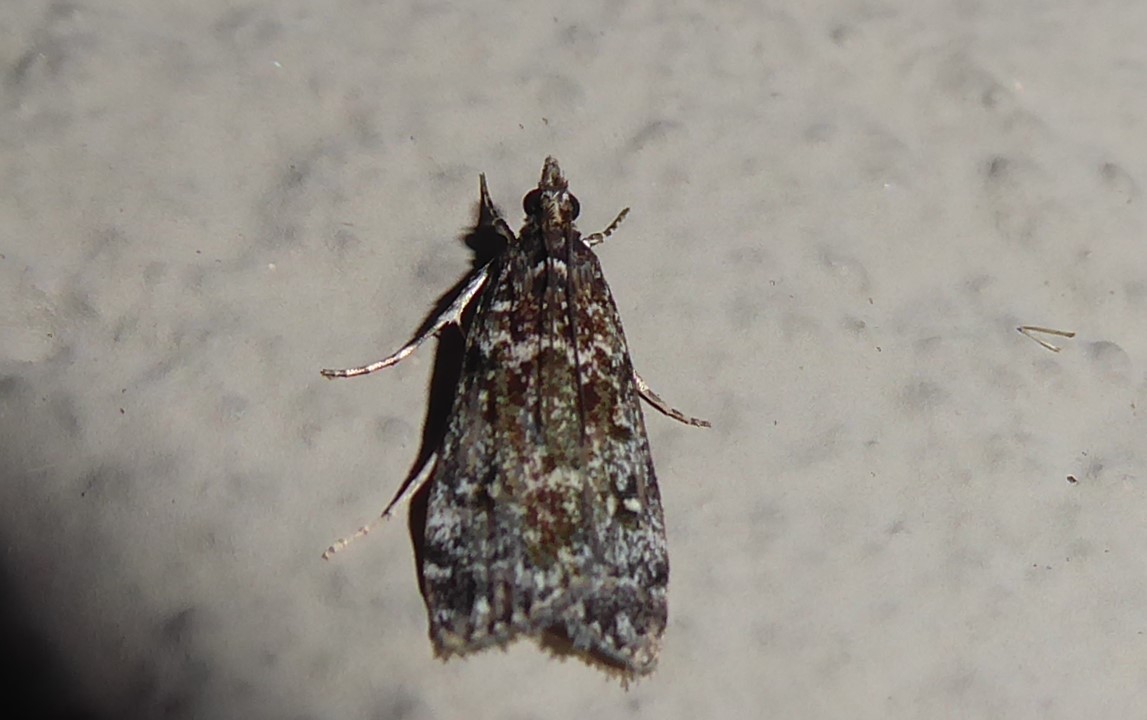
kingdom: Animalia
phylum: Arthropoda
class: Insecta
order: Lepidoptera
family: Crambidae
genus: Eudonia
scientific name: Eudonia philerga
